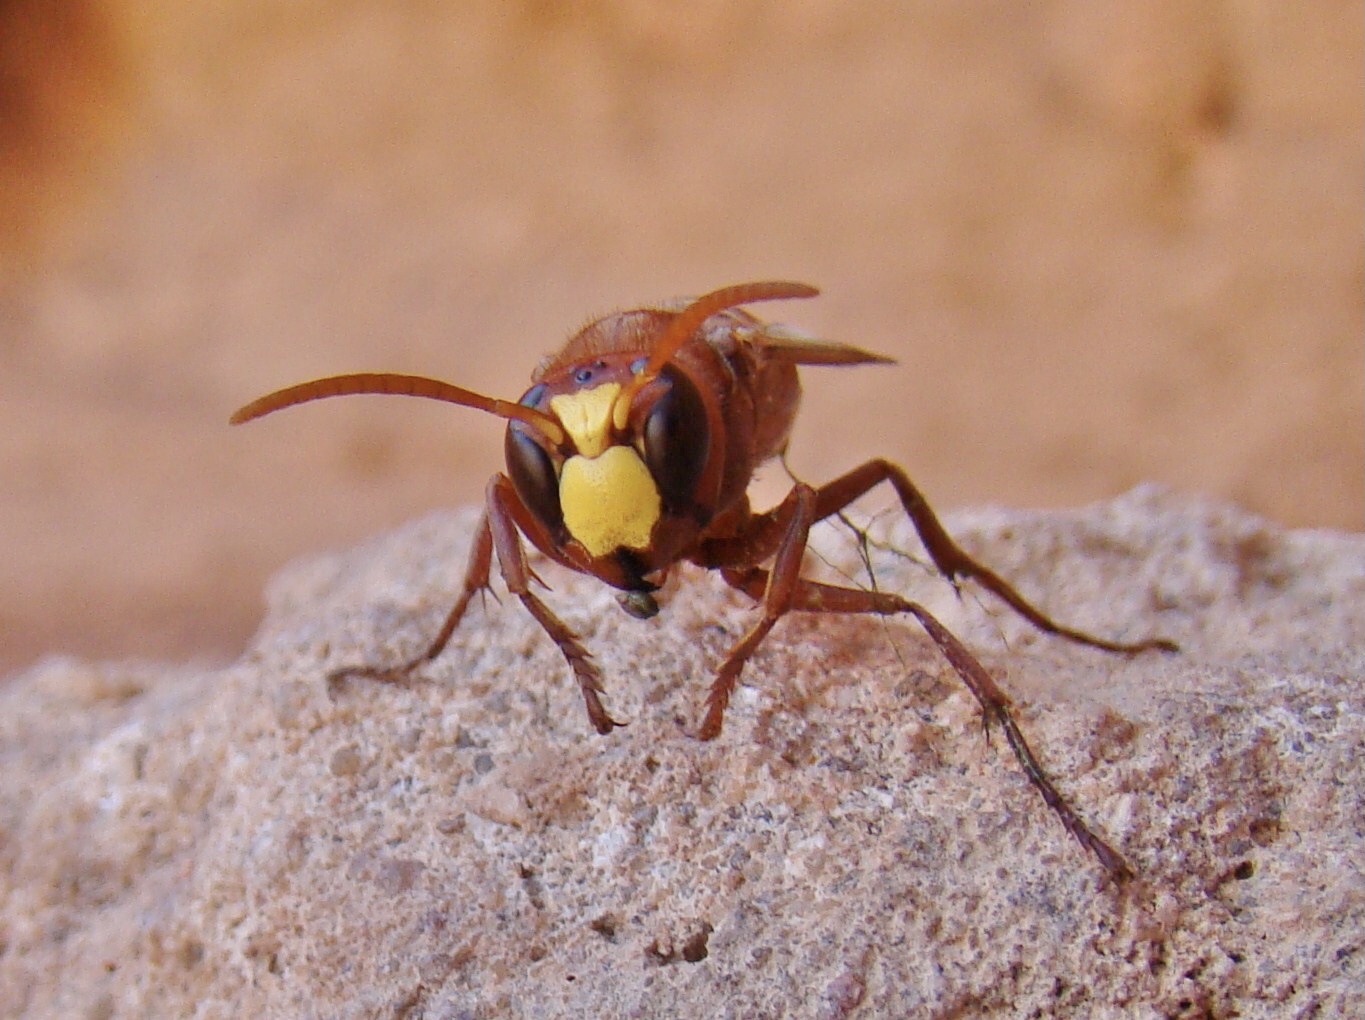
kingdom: Animalia
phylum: Arthropoda
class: Insecta
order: Hymenoptera
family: Vespidae
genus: Vespa
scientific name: Vespa orientalis
